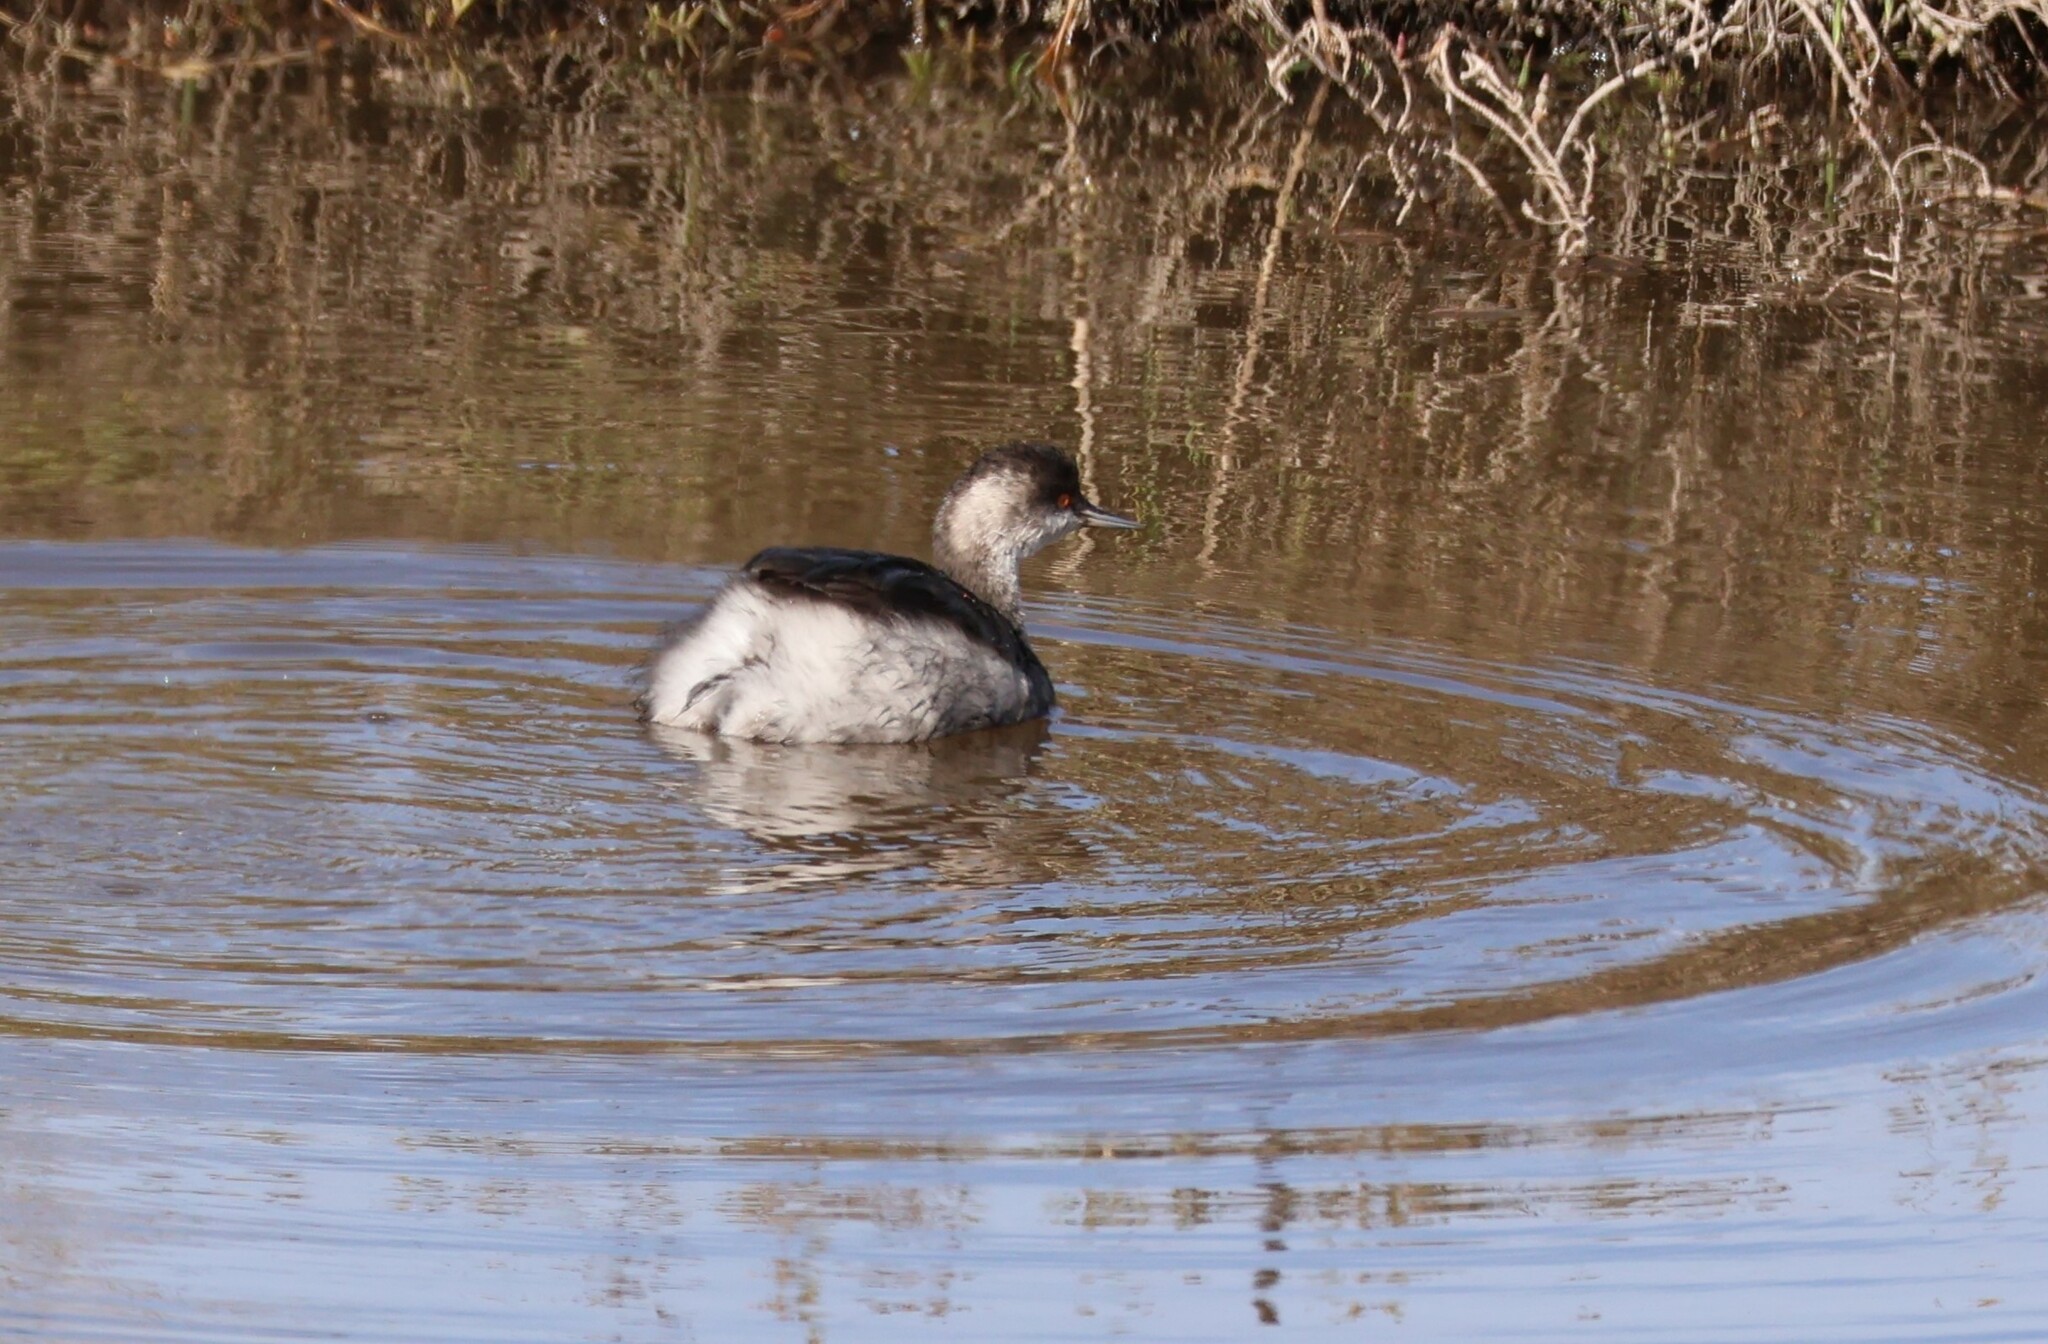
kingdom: Animalia
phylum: Chordata
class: Aves
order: Podicipediformes
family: Podicipedidae
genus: Podiceps
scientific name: Podiceps nigricollis
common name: Black-necked grebe
